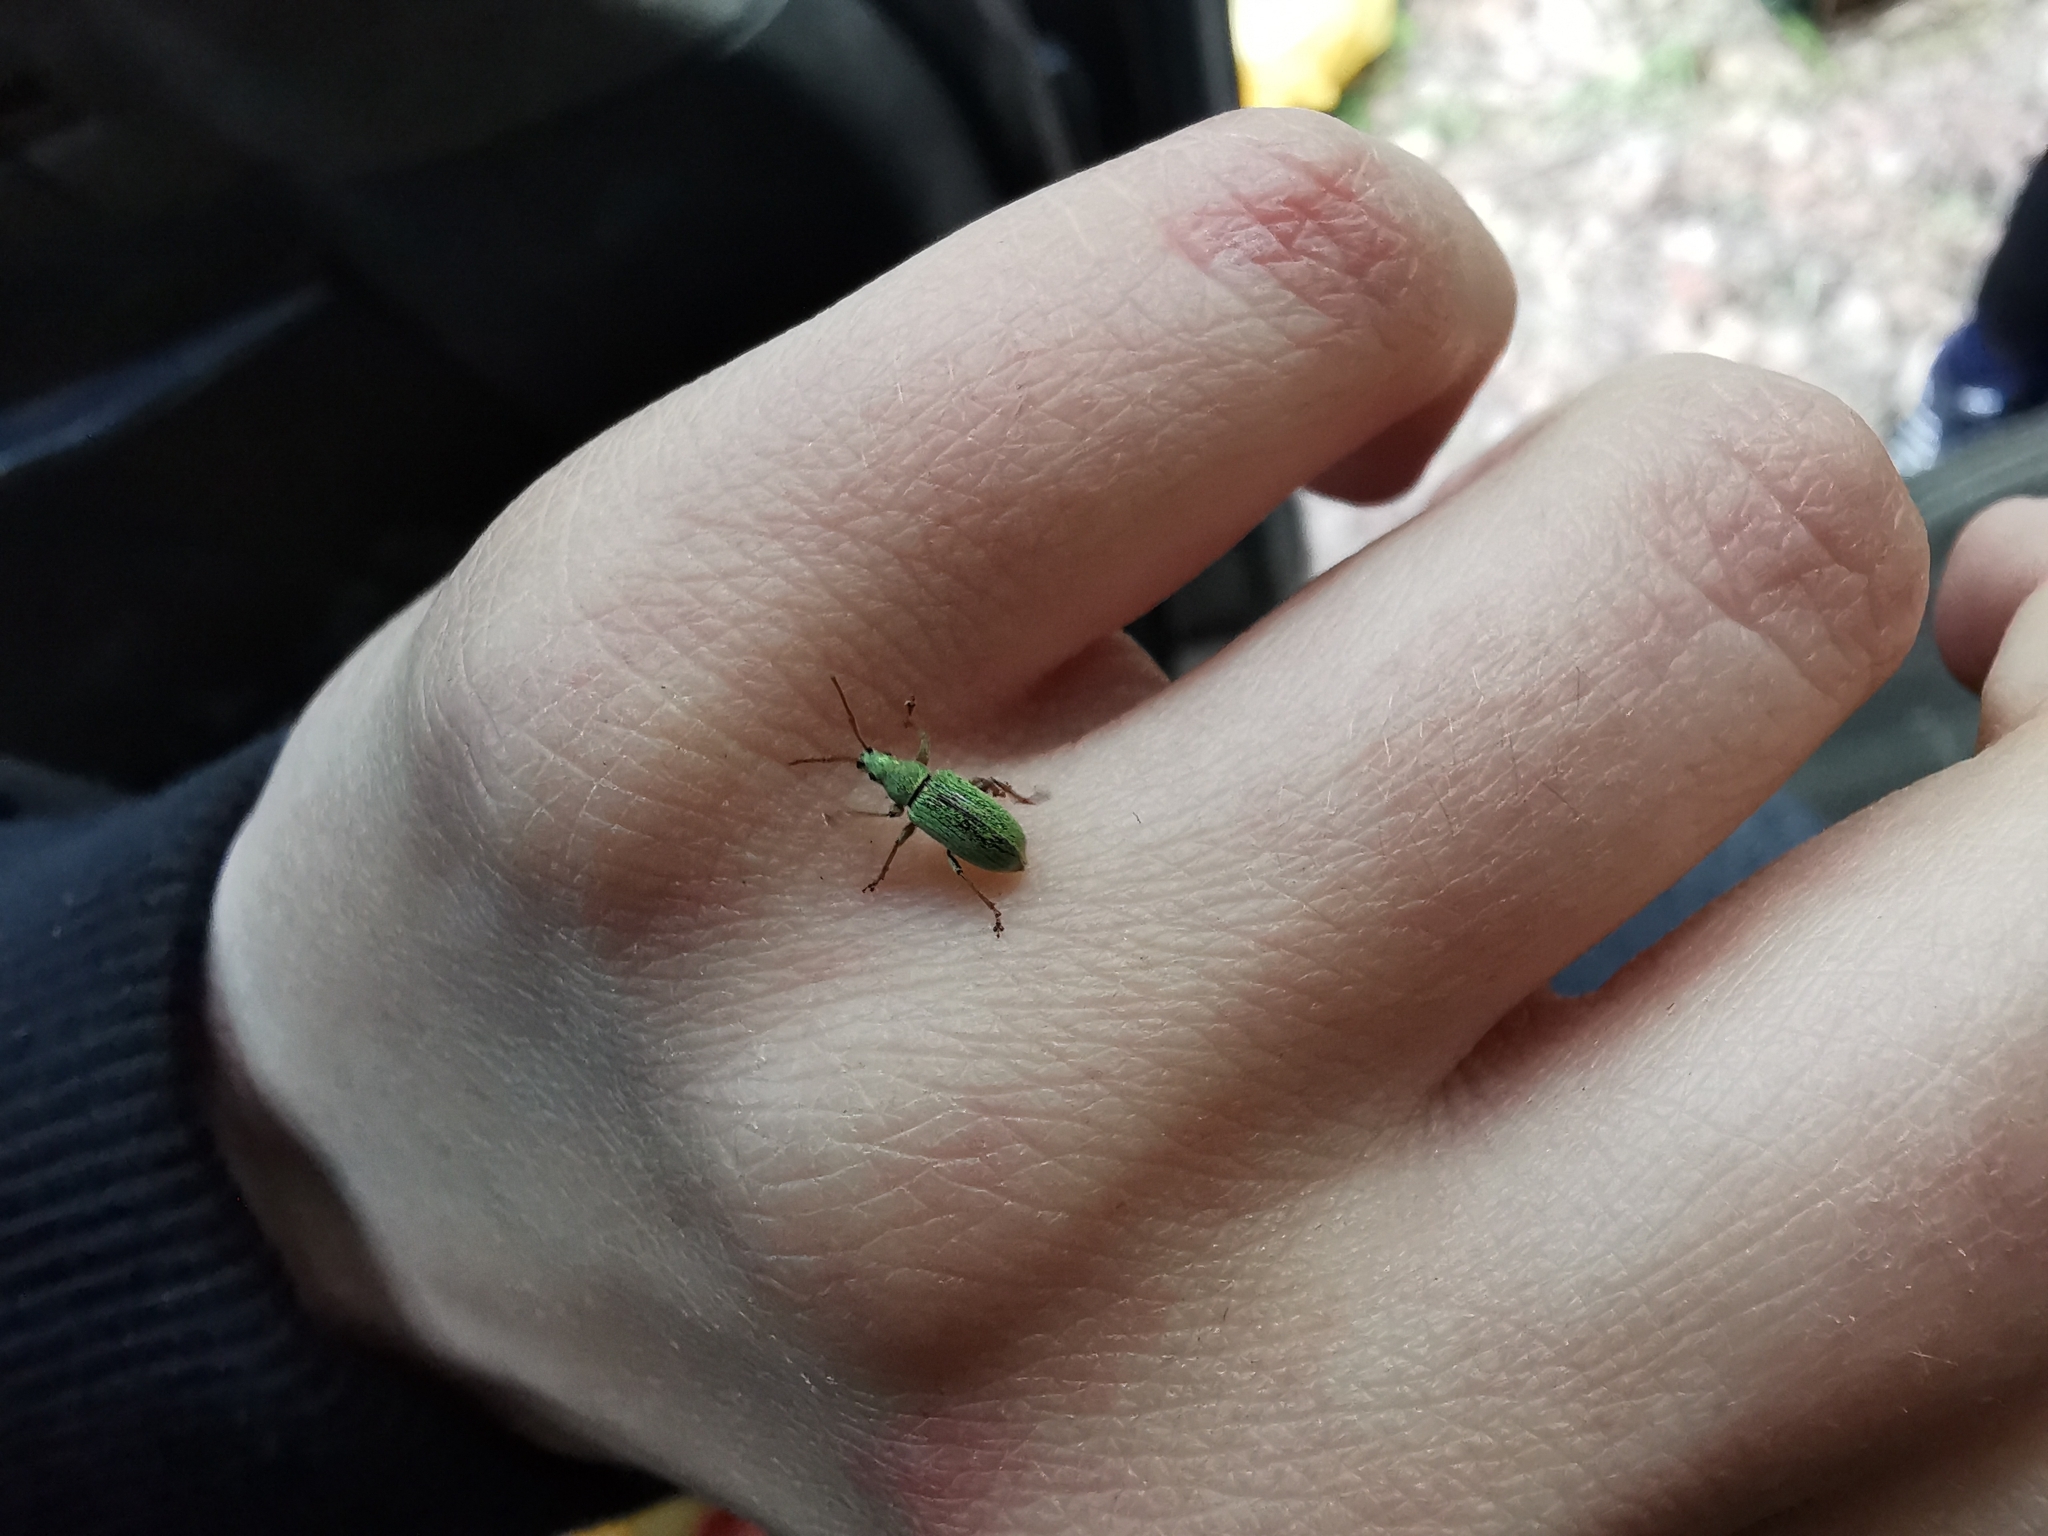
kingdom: Animalia
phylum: Arthropoda
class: Insecta
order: Coleoptera
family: Curculionidae
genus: Phyllobius
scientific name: Phyllobius maculicornis
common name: Green leaf weevil
